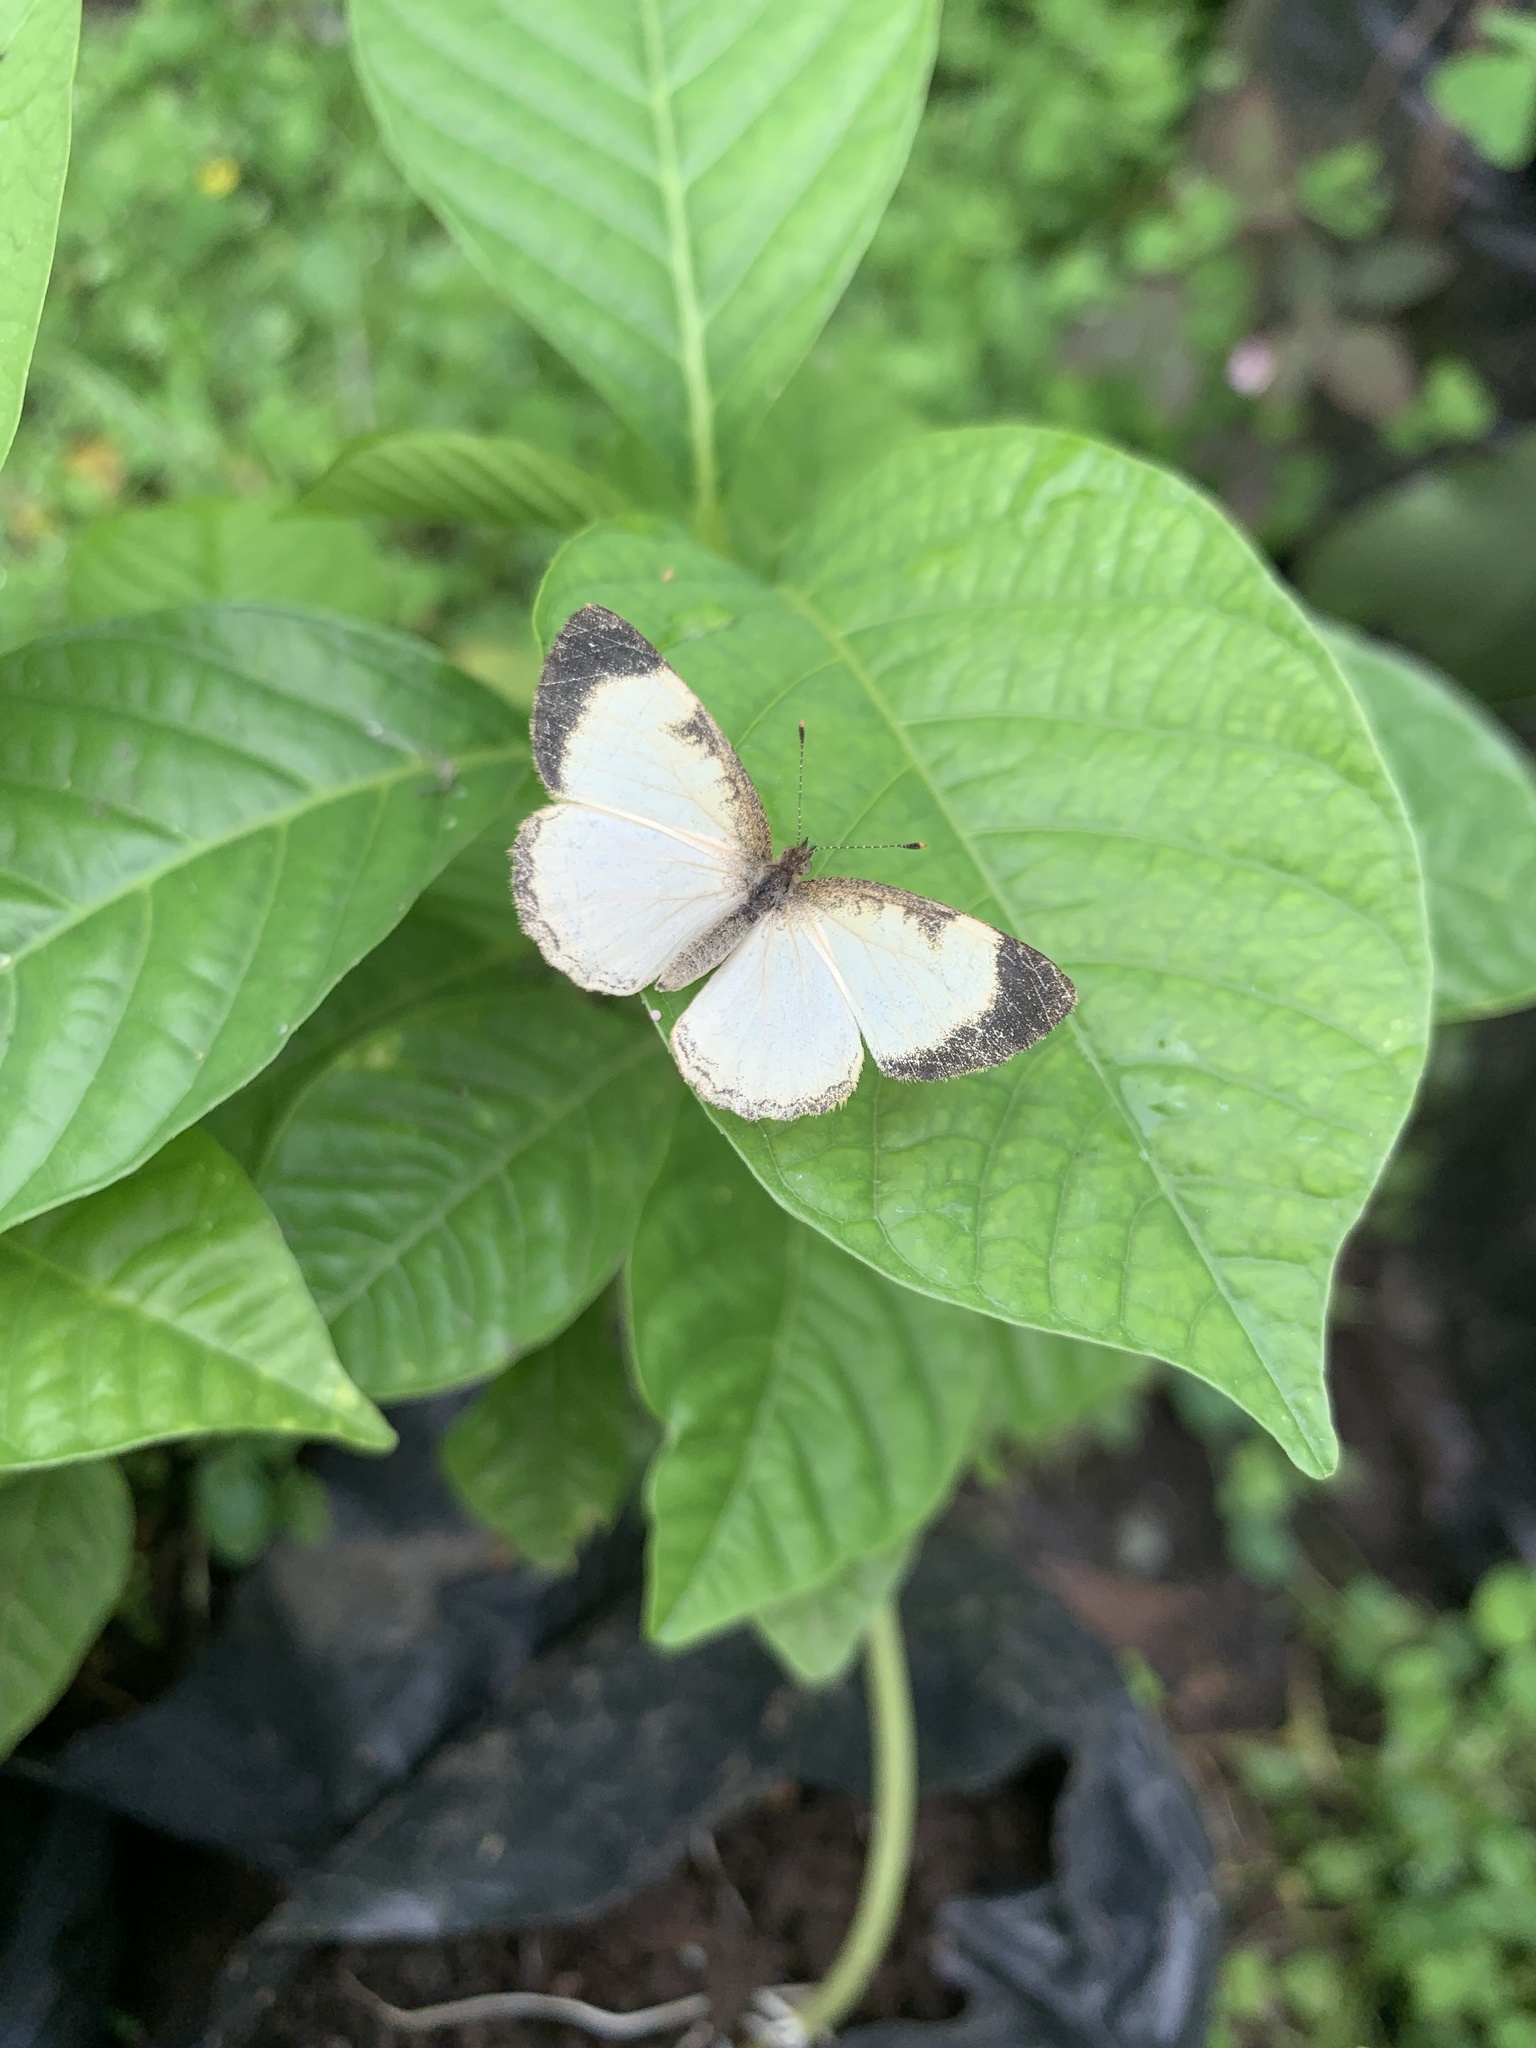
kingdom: Animalia
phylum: Arthropoda
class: Insecta
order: Lepidoptera
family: Nymphalidae
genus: Tegosa
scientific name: Tegosa flavida
